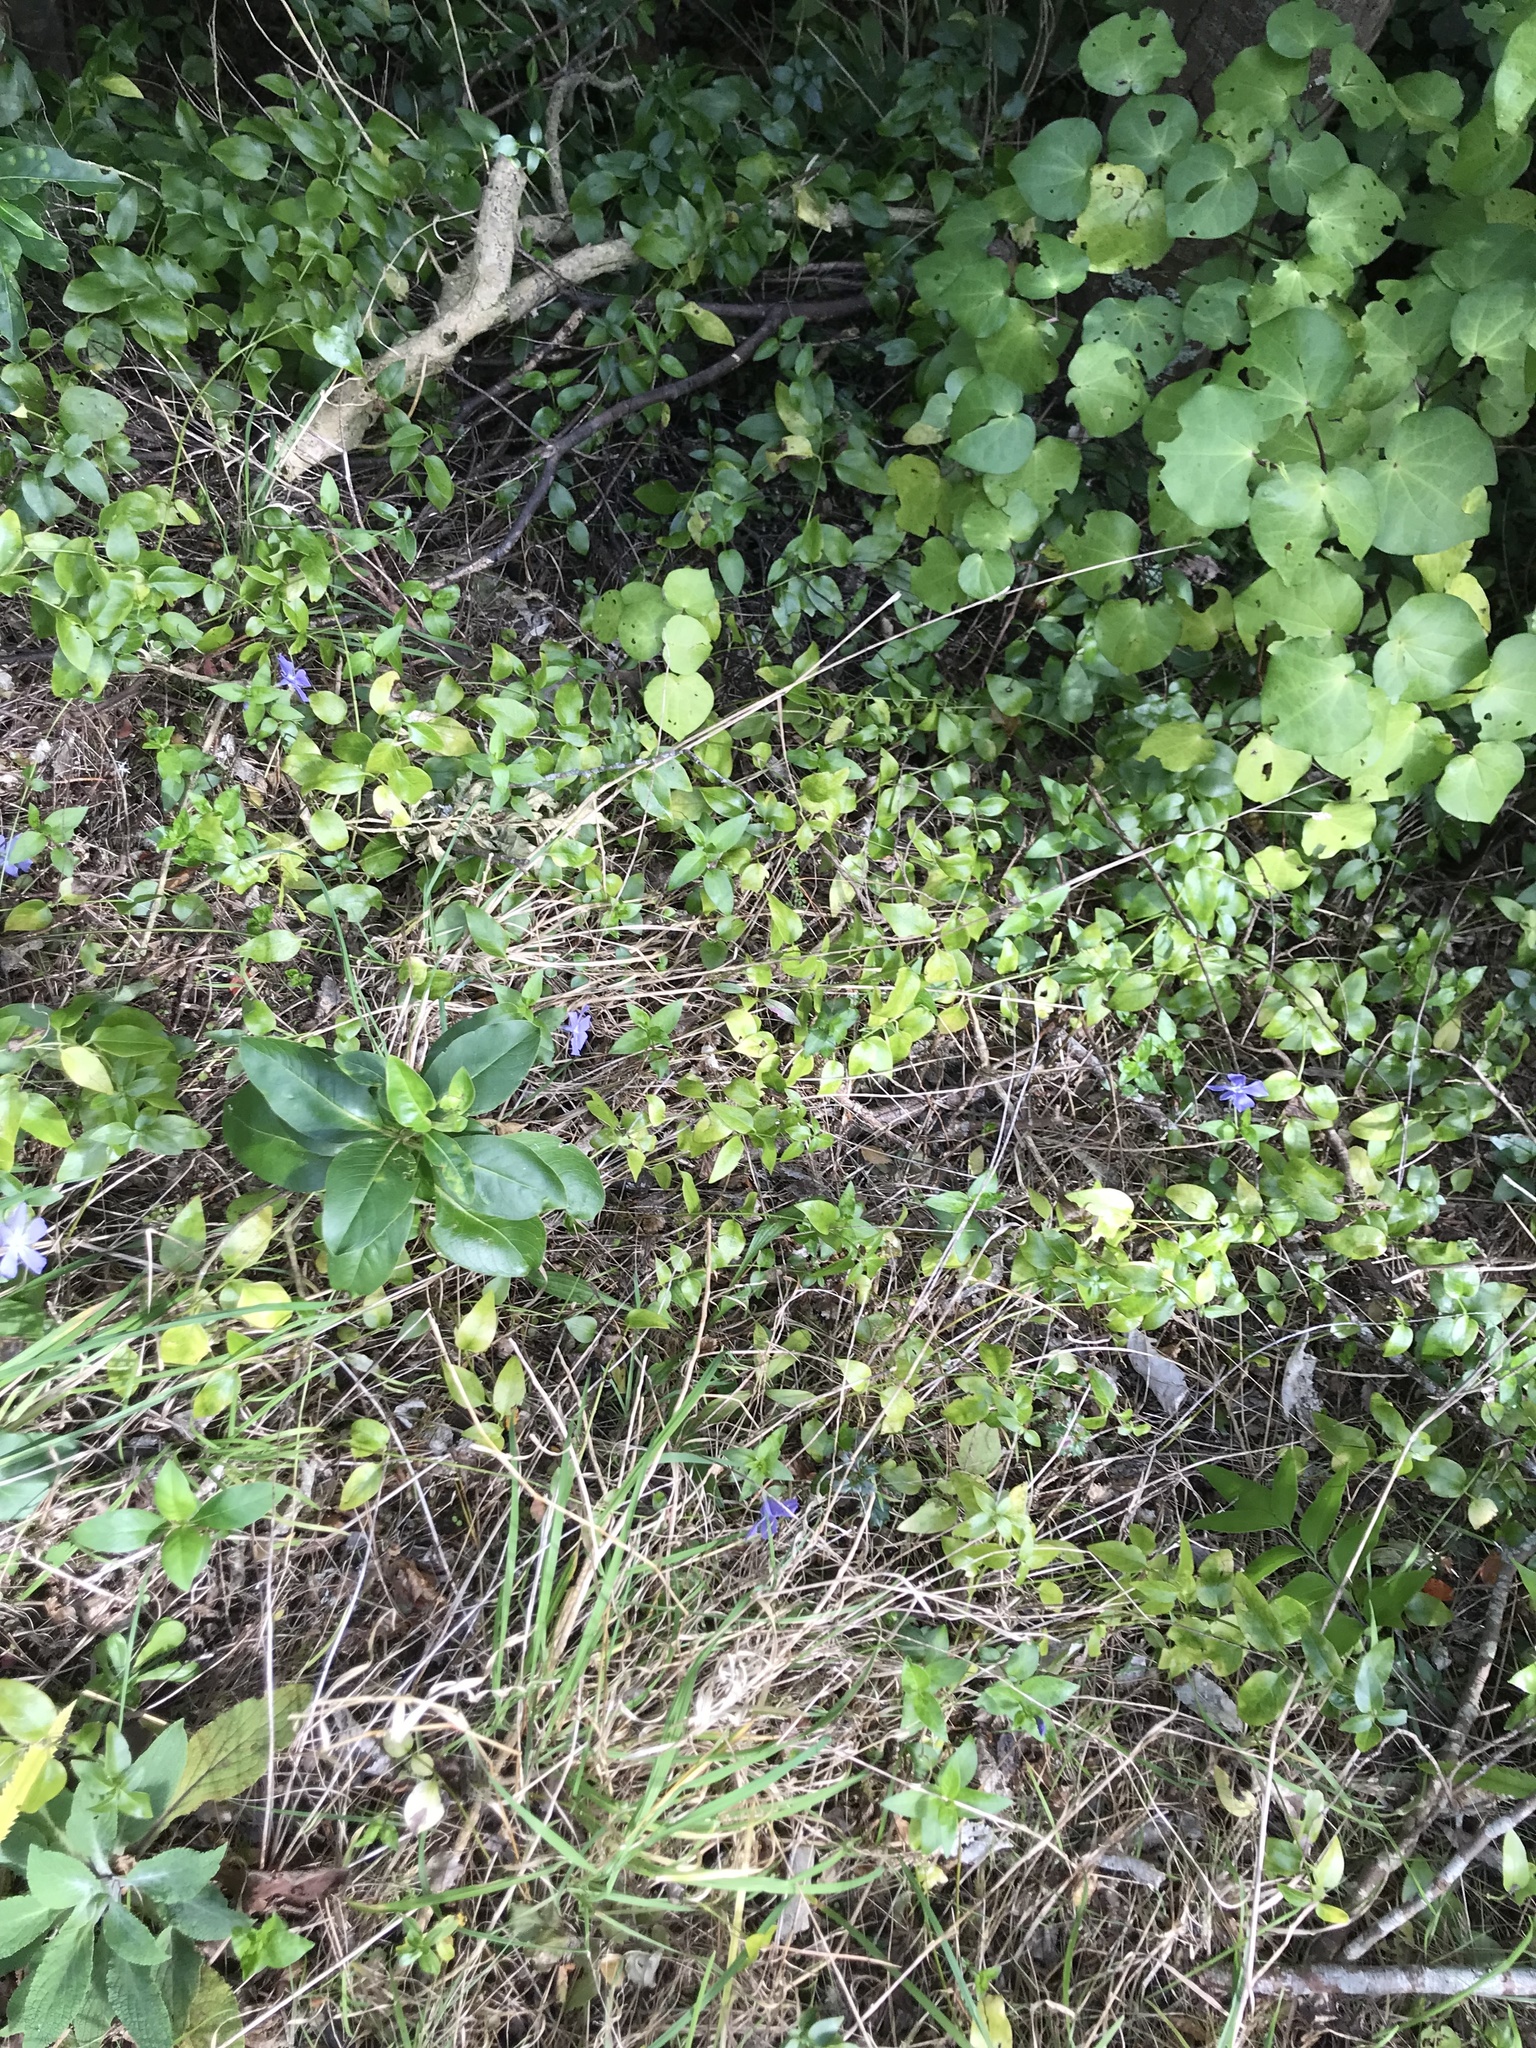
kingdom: Plantae
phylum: Tracheophyta
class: Magnoliopsida
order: Gentianales
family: Apocynaceae
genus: Vinca
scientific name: Vinca major
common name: Greater periwinkle
